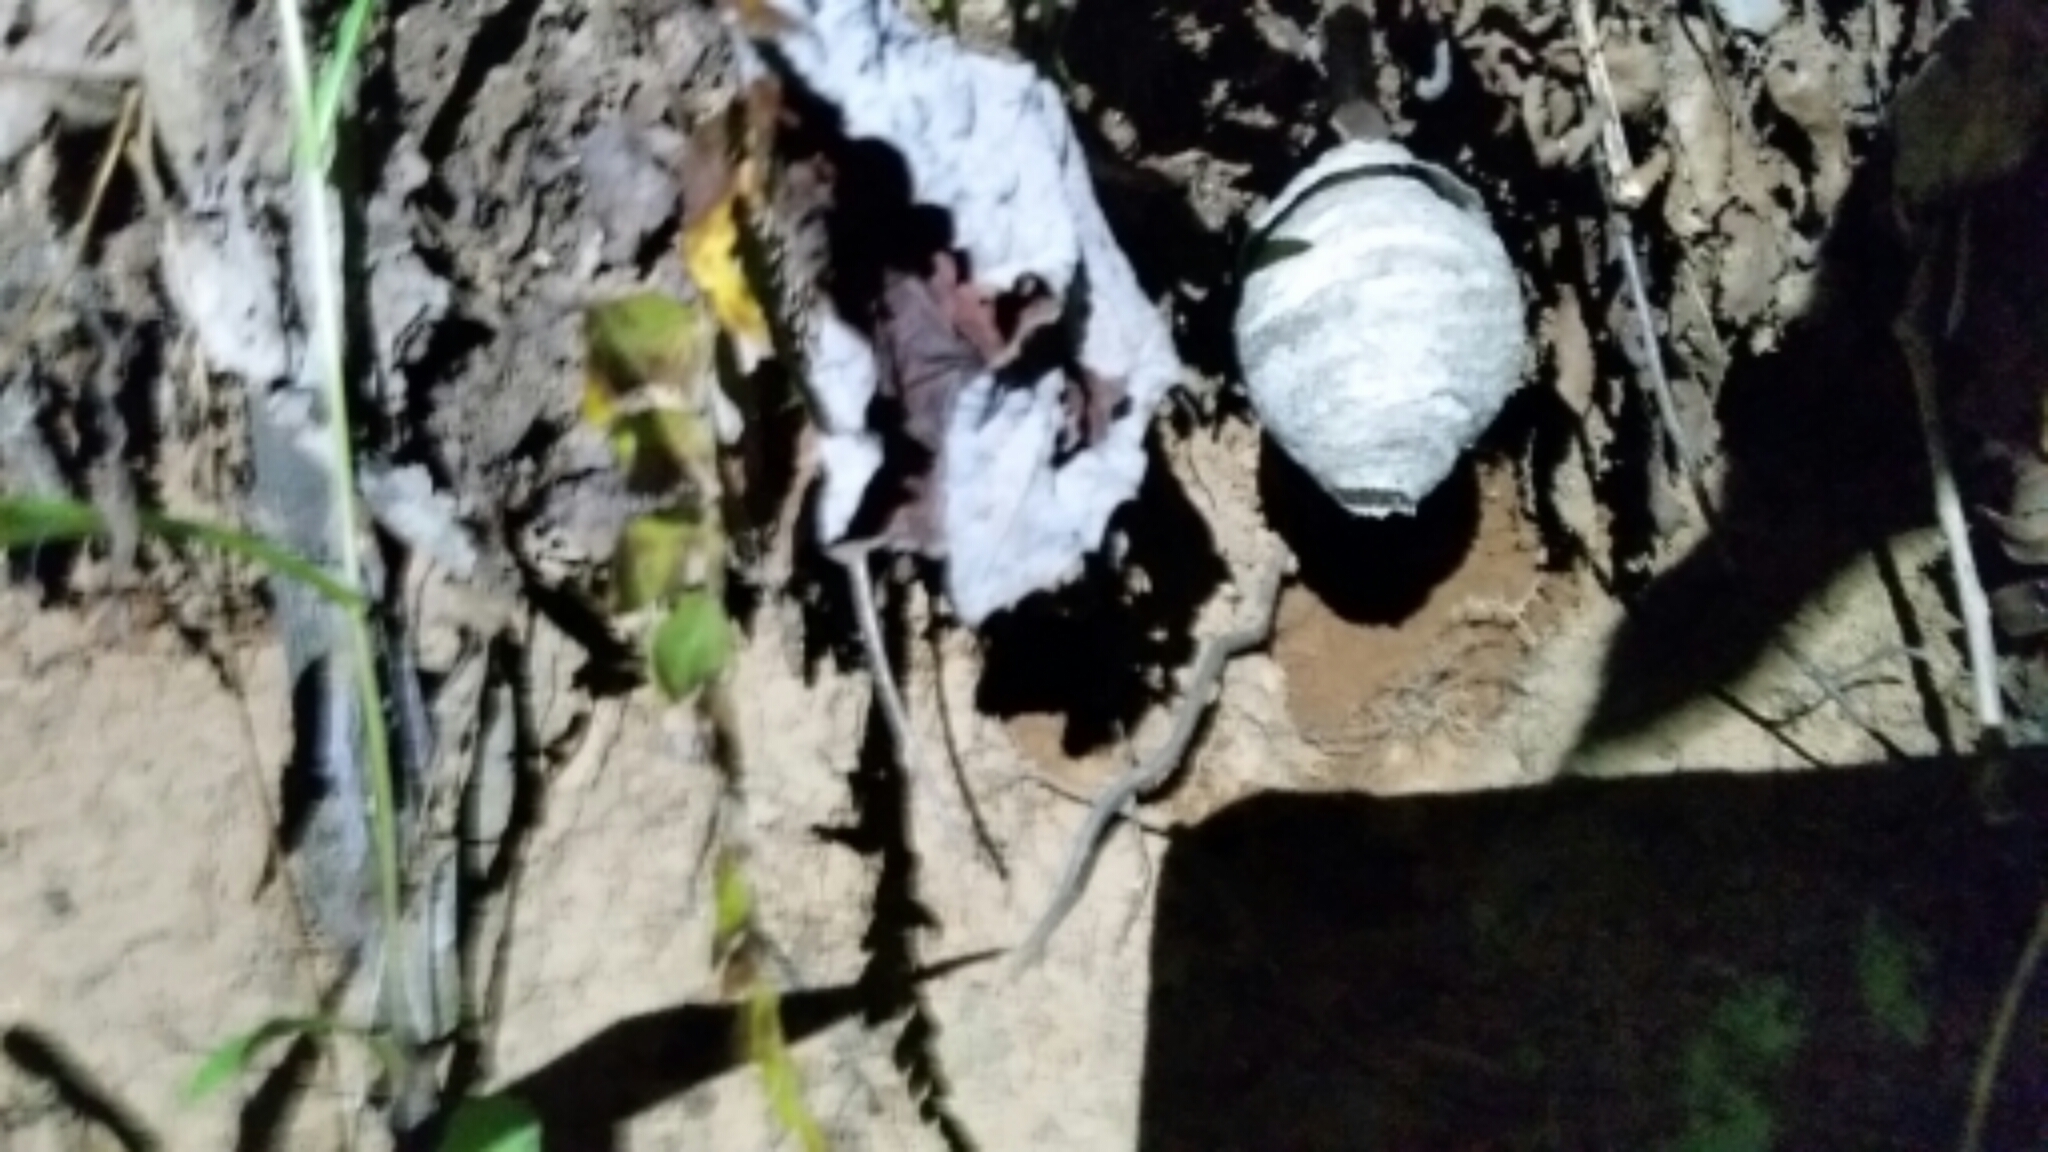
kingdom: Animalia
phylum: Arthropoda
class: Insecta
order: Hymenoptera
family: Vespidae
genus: Dolichovespula
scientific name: Dolichovespula
